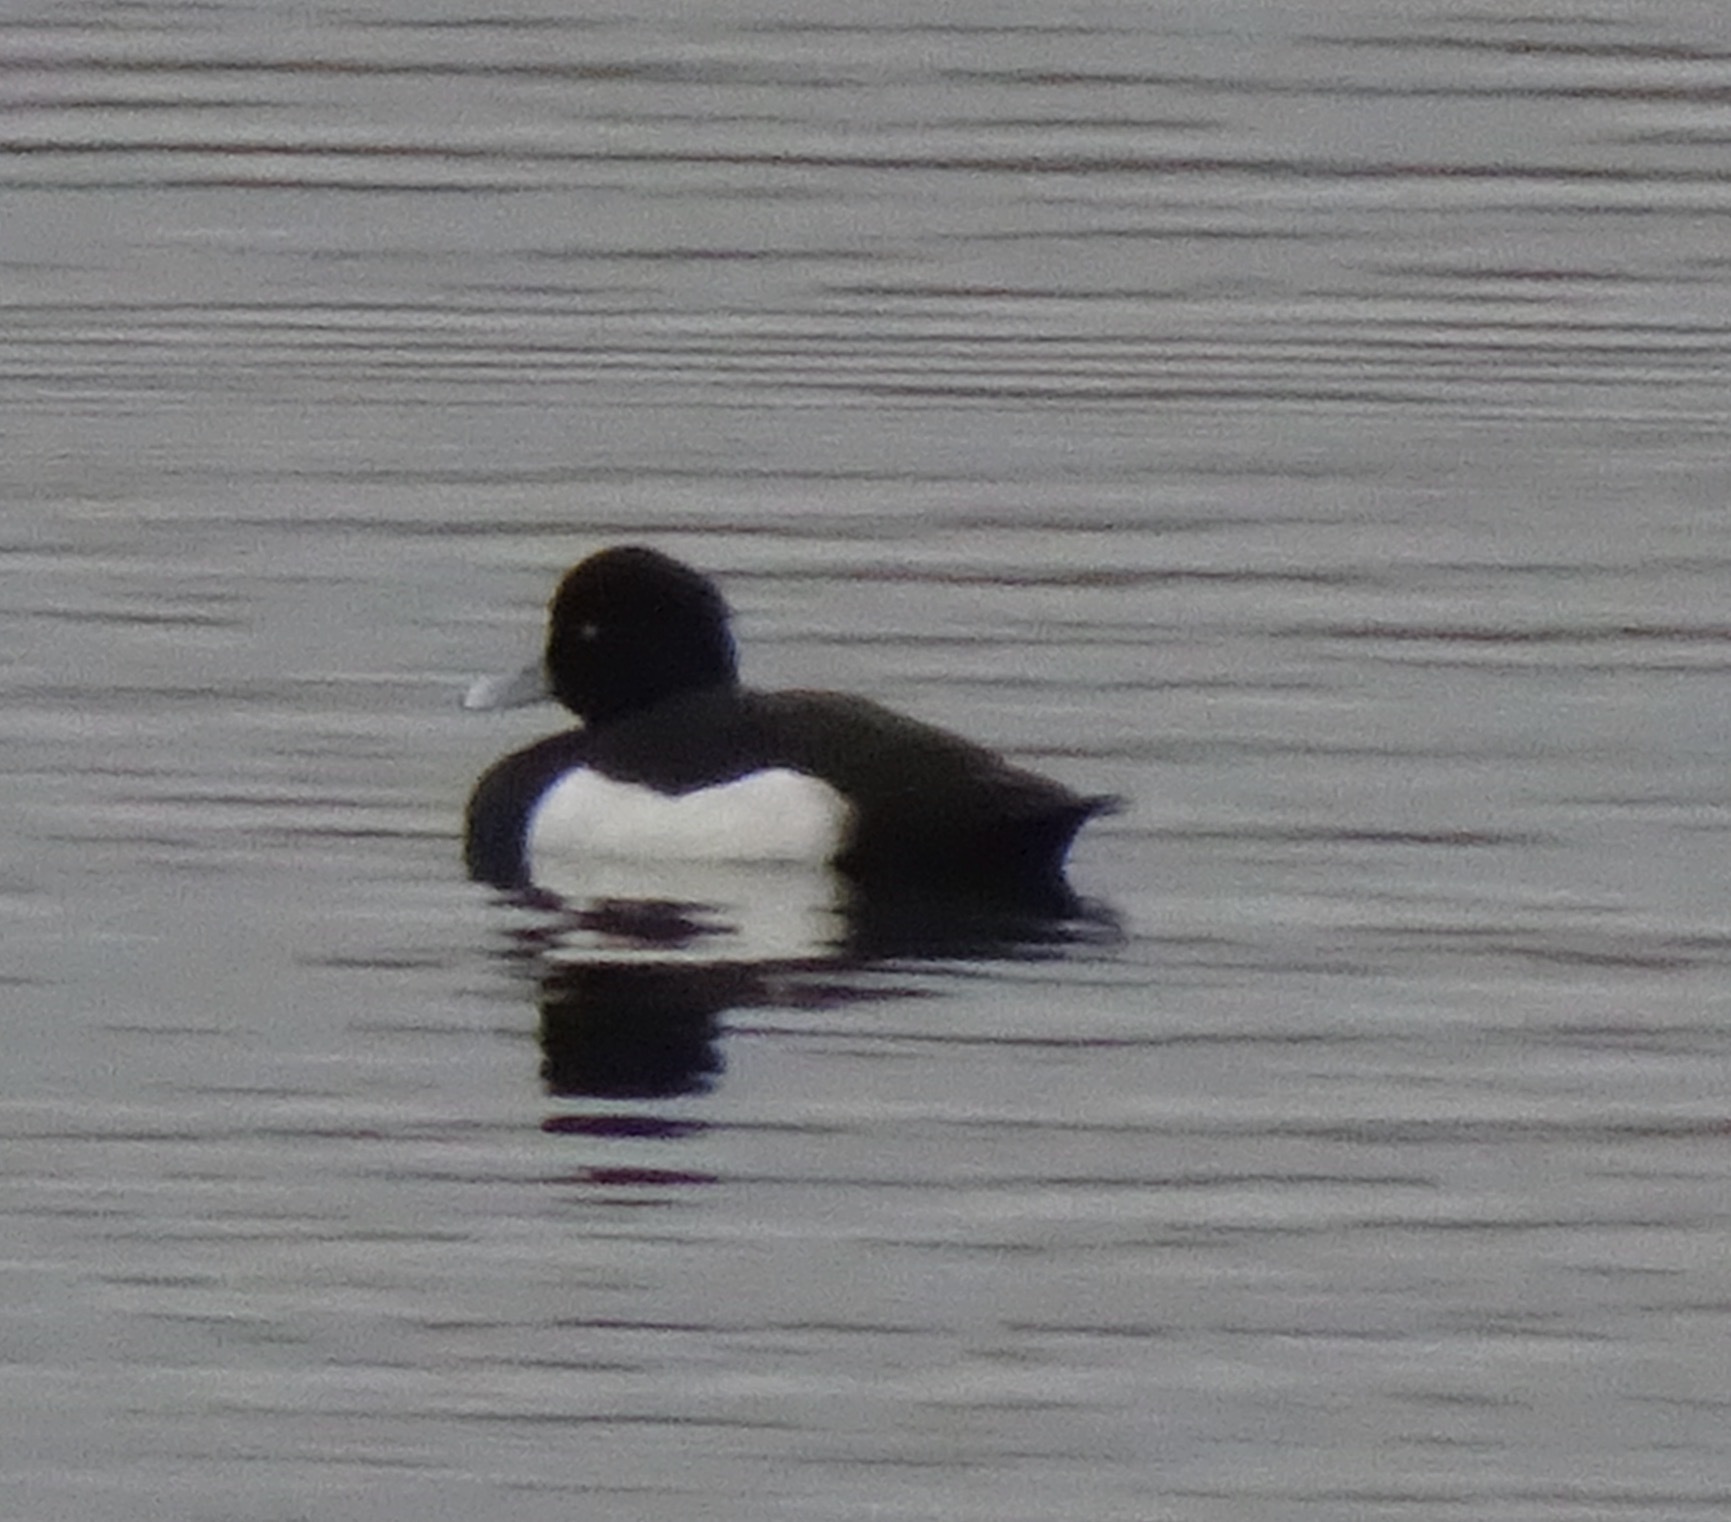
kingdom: Animalia
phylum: Chordata
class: Aves
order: Anseriformes
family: Anatidae
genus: Aythya
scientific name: Aythya fuligula
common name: Tufted duck
